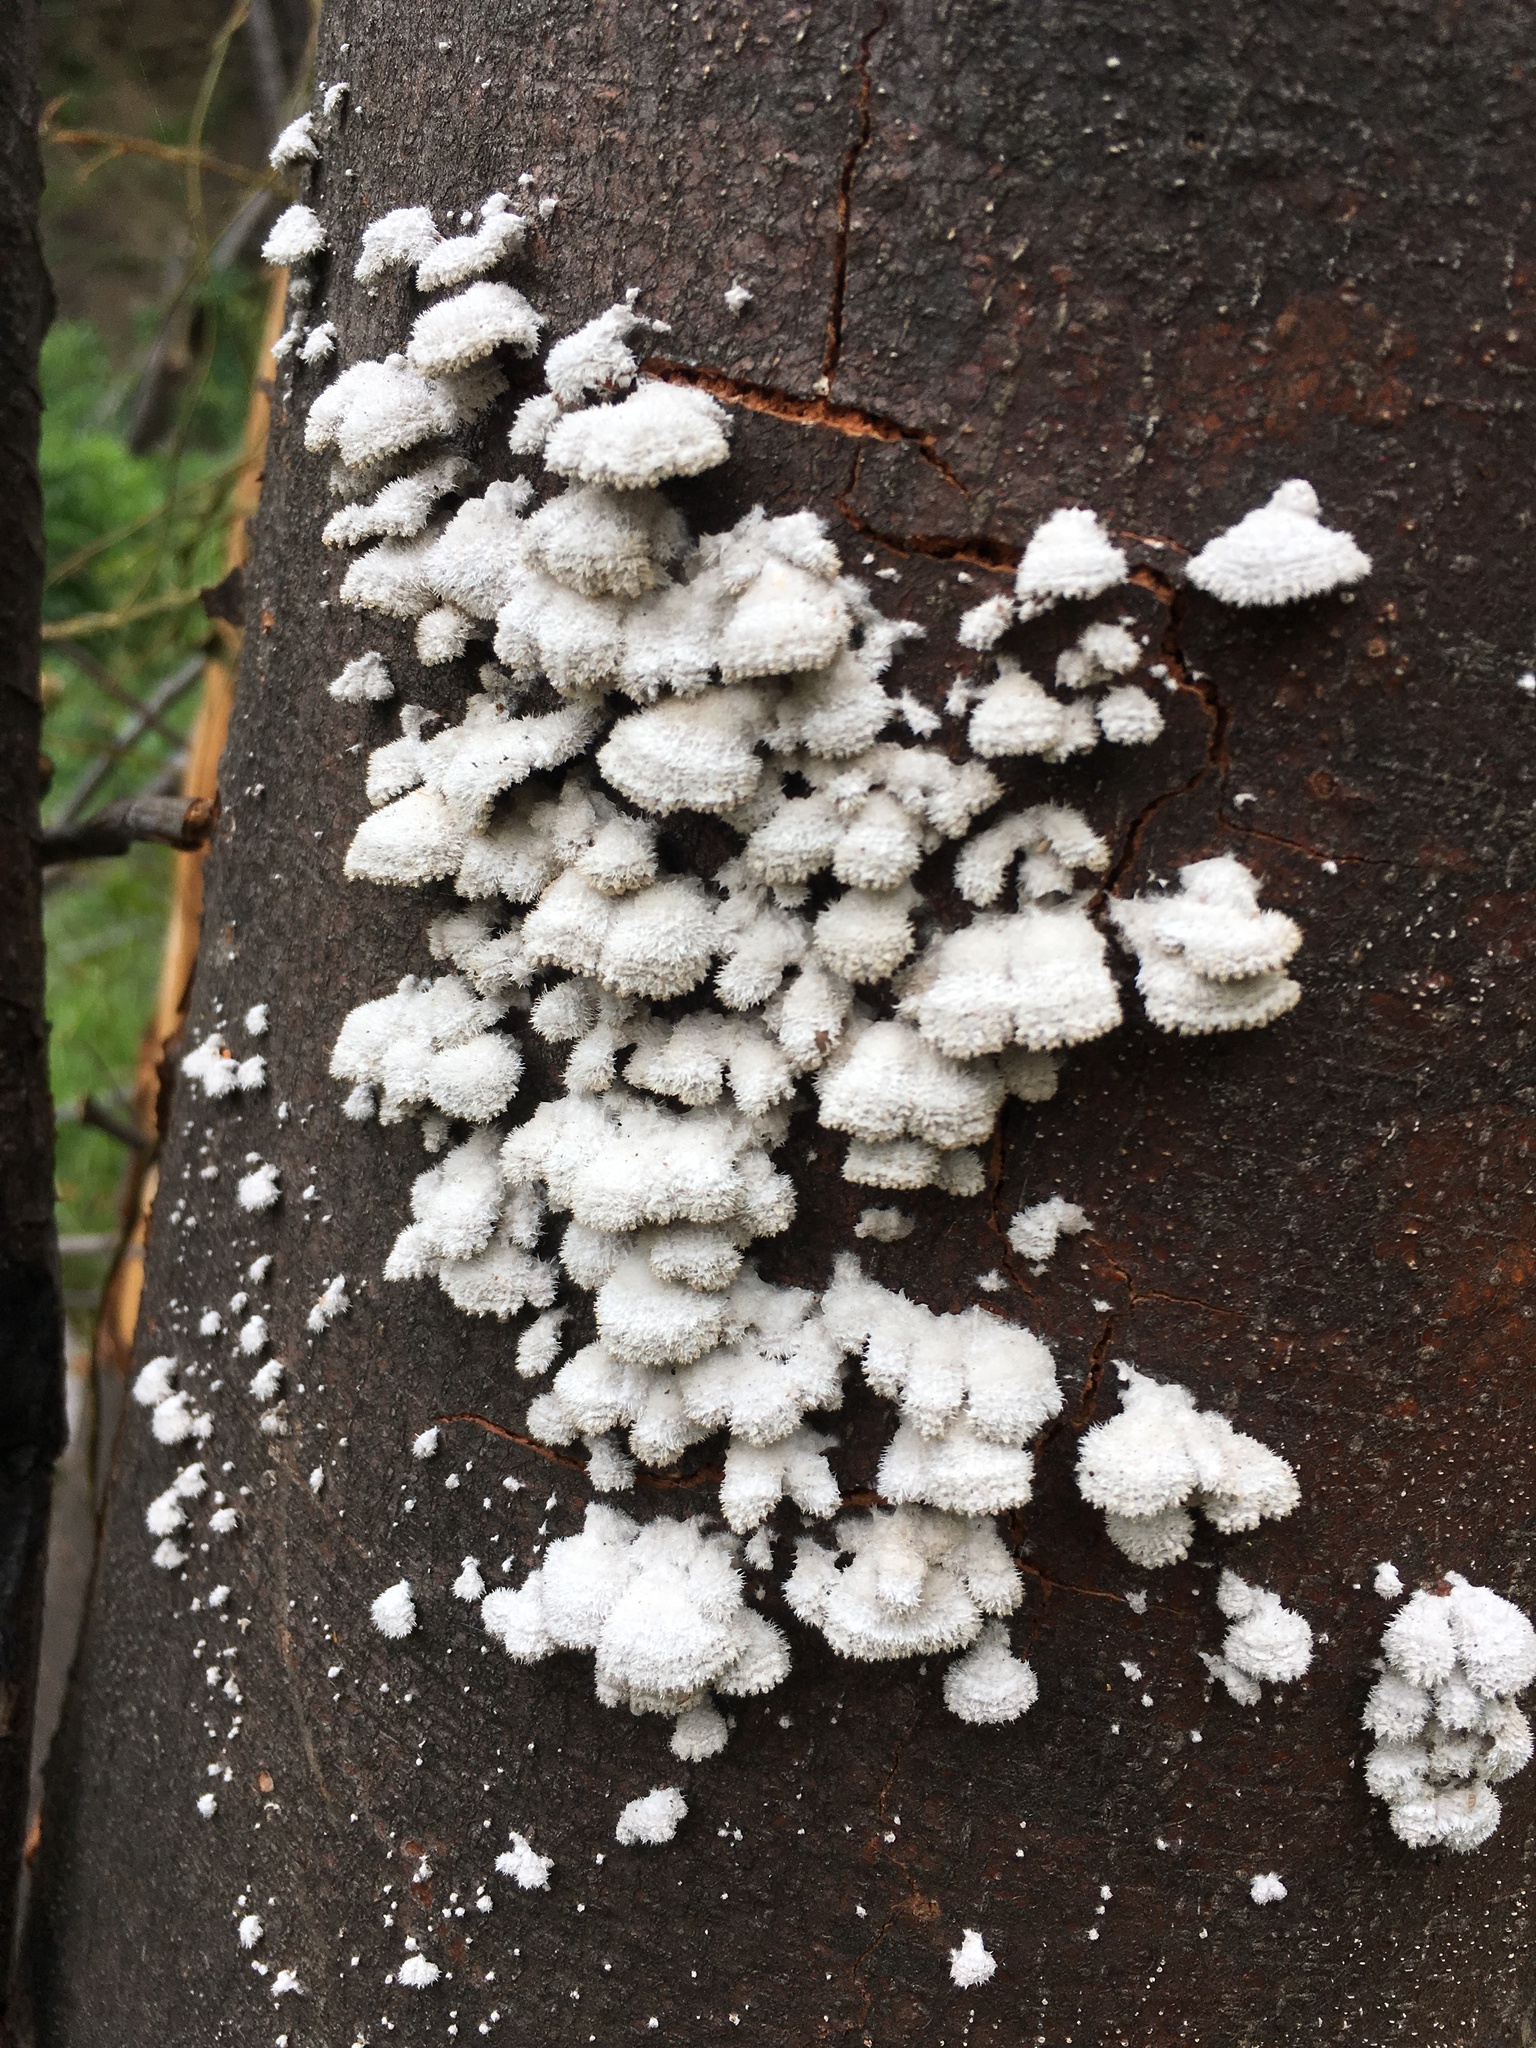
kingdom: Fungi
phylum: Basidiomycota
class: Agaricomycetes
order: Agaricales
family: Schizophyllaceae
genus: Schizophyllum
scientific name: Schizophyllum commune
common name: Common porecrust
